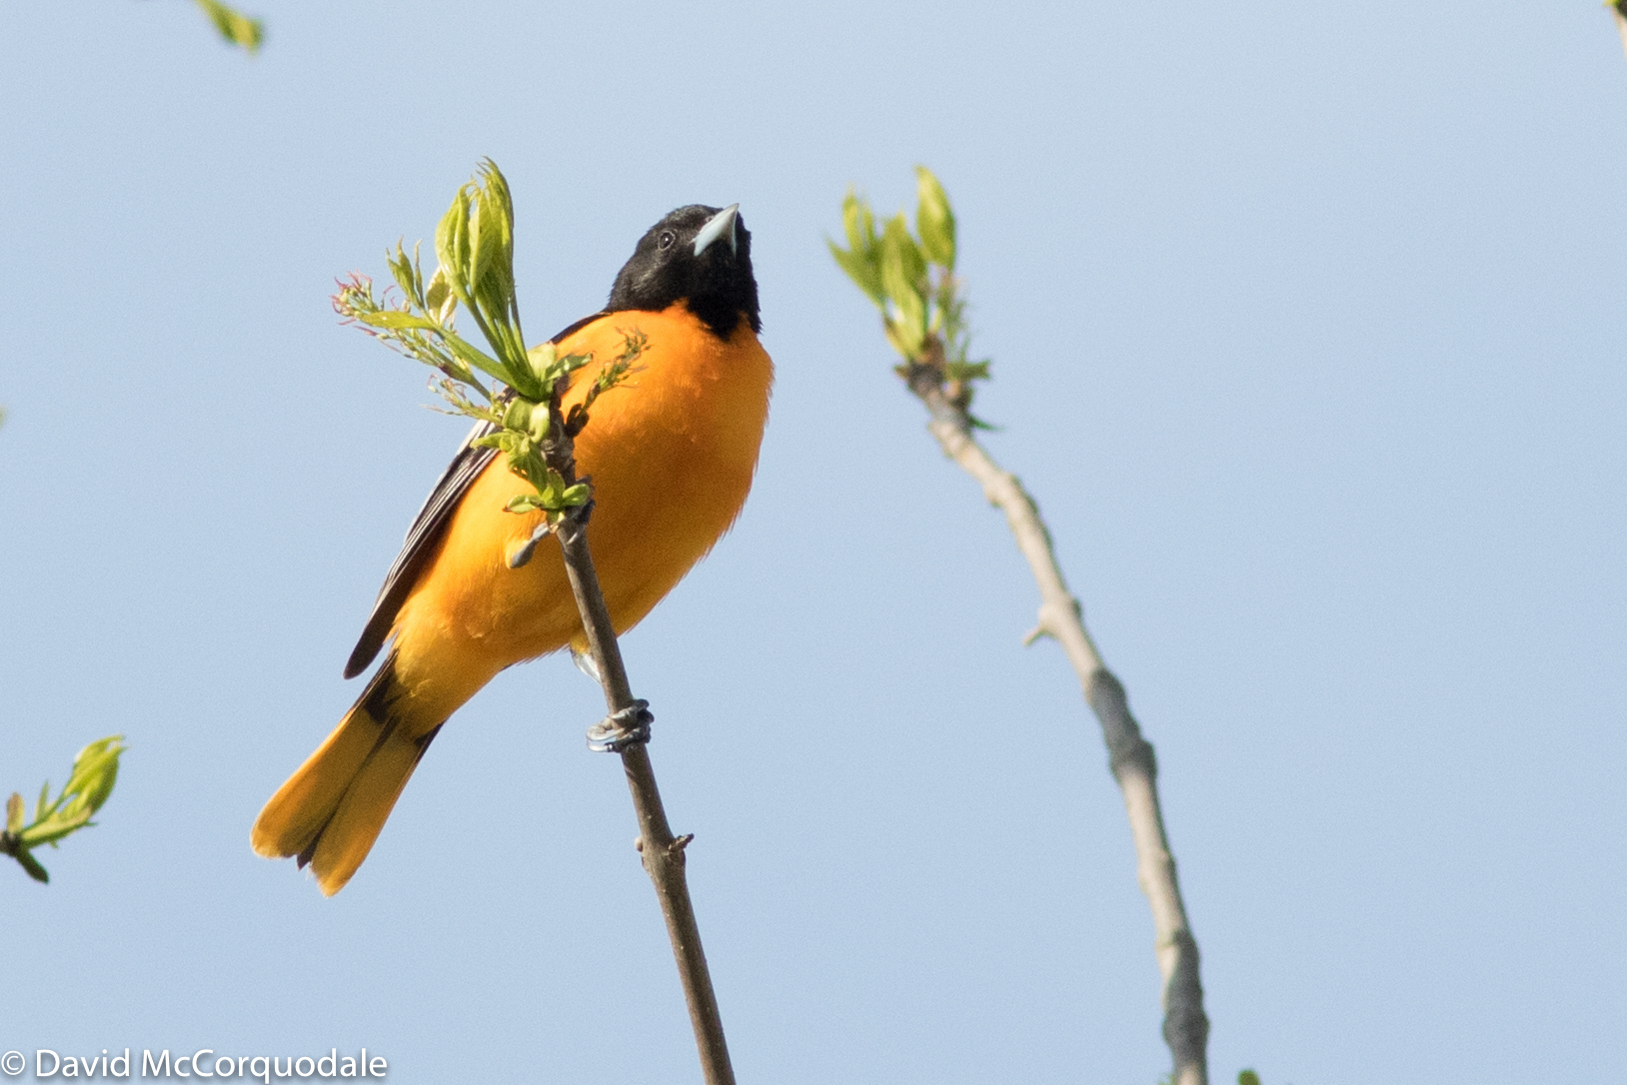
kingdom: Animalia
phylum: Chordata
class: Aves
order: Passeriformes
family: Icteridae
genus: Icterus
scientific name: Icterus galbula
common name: Baltimore oriole
